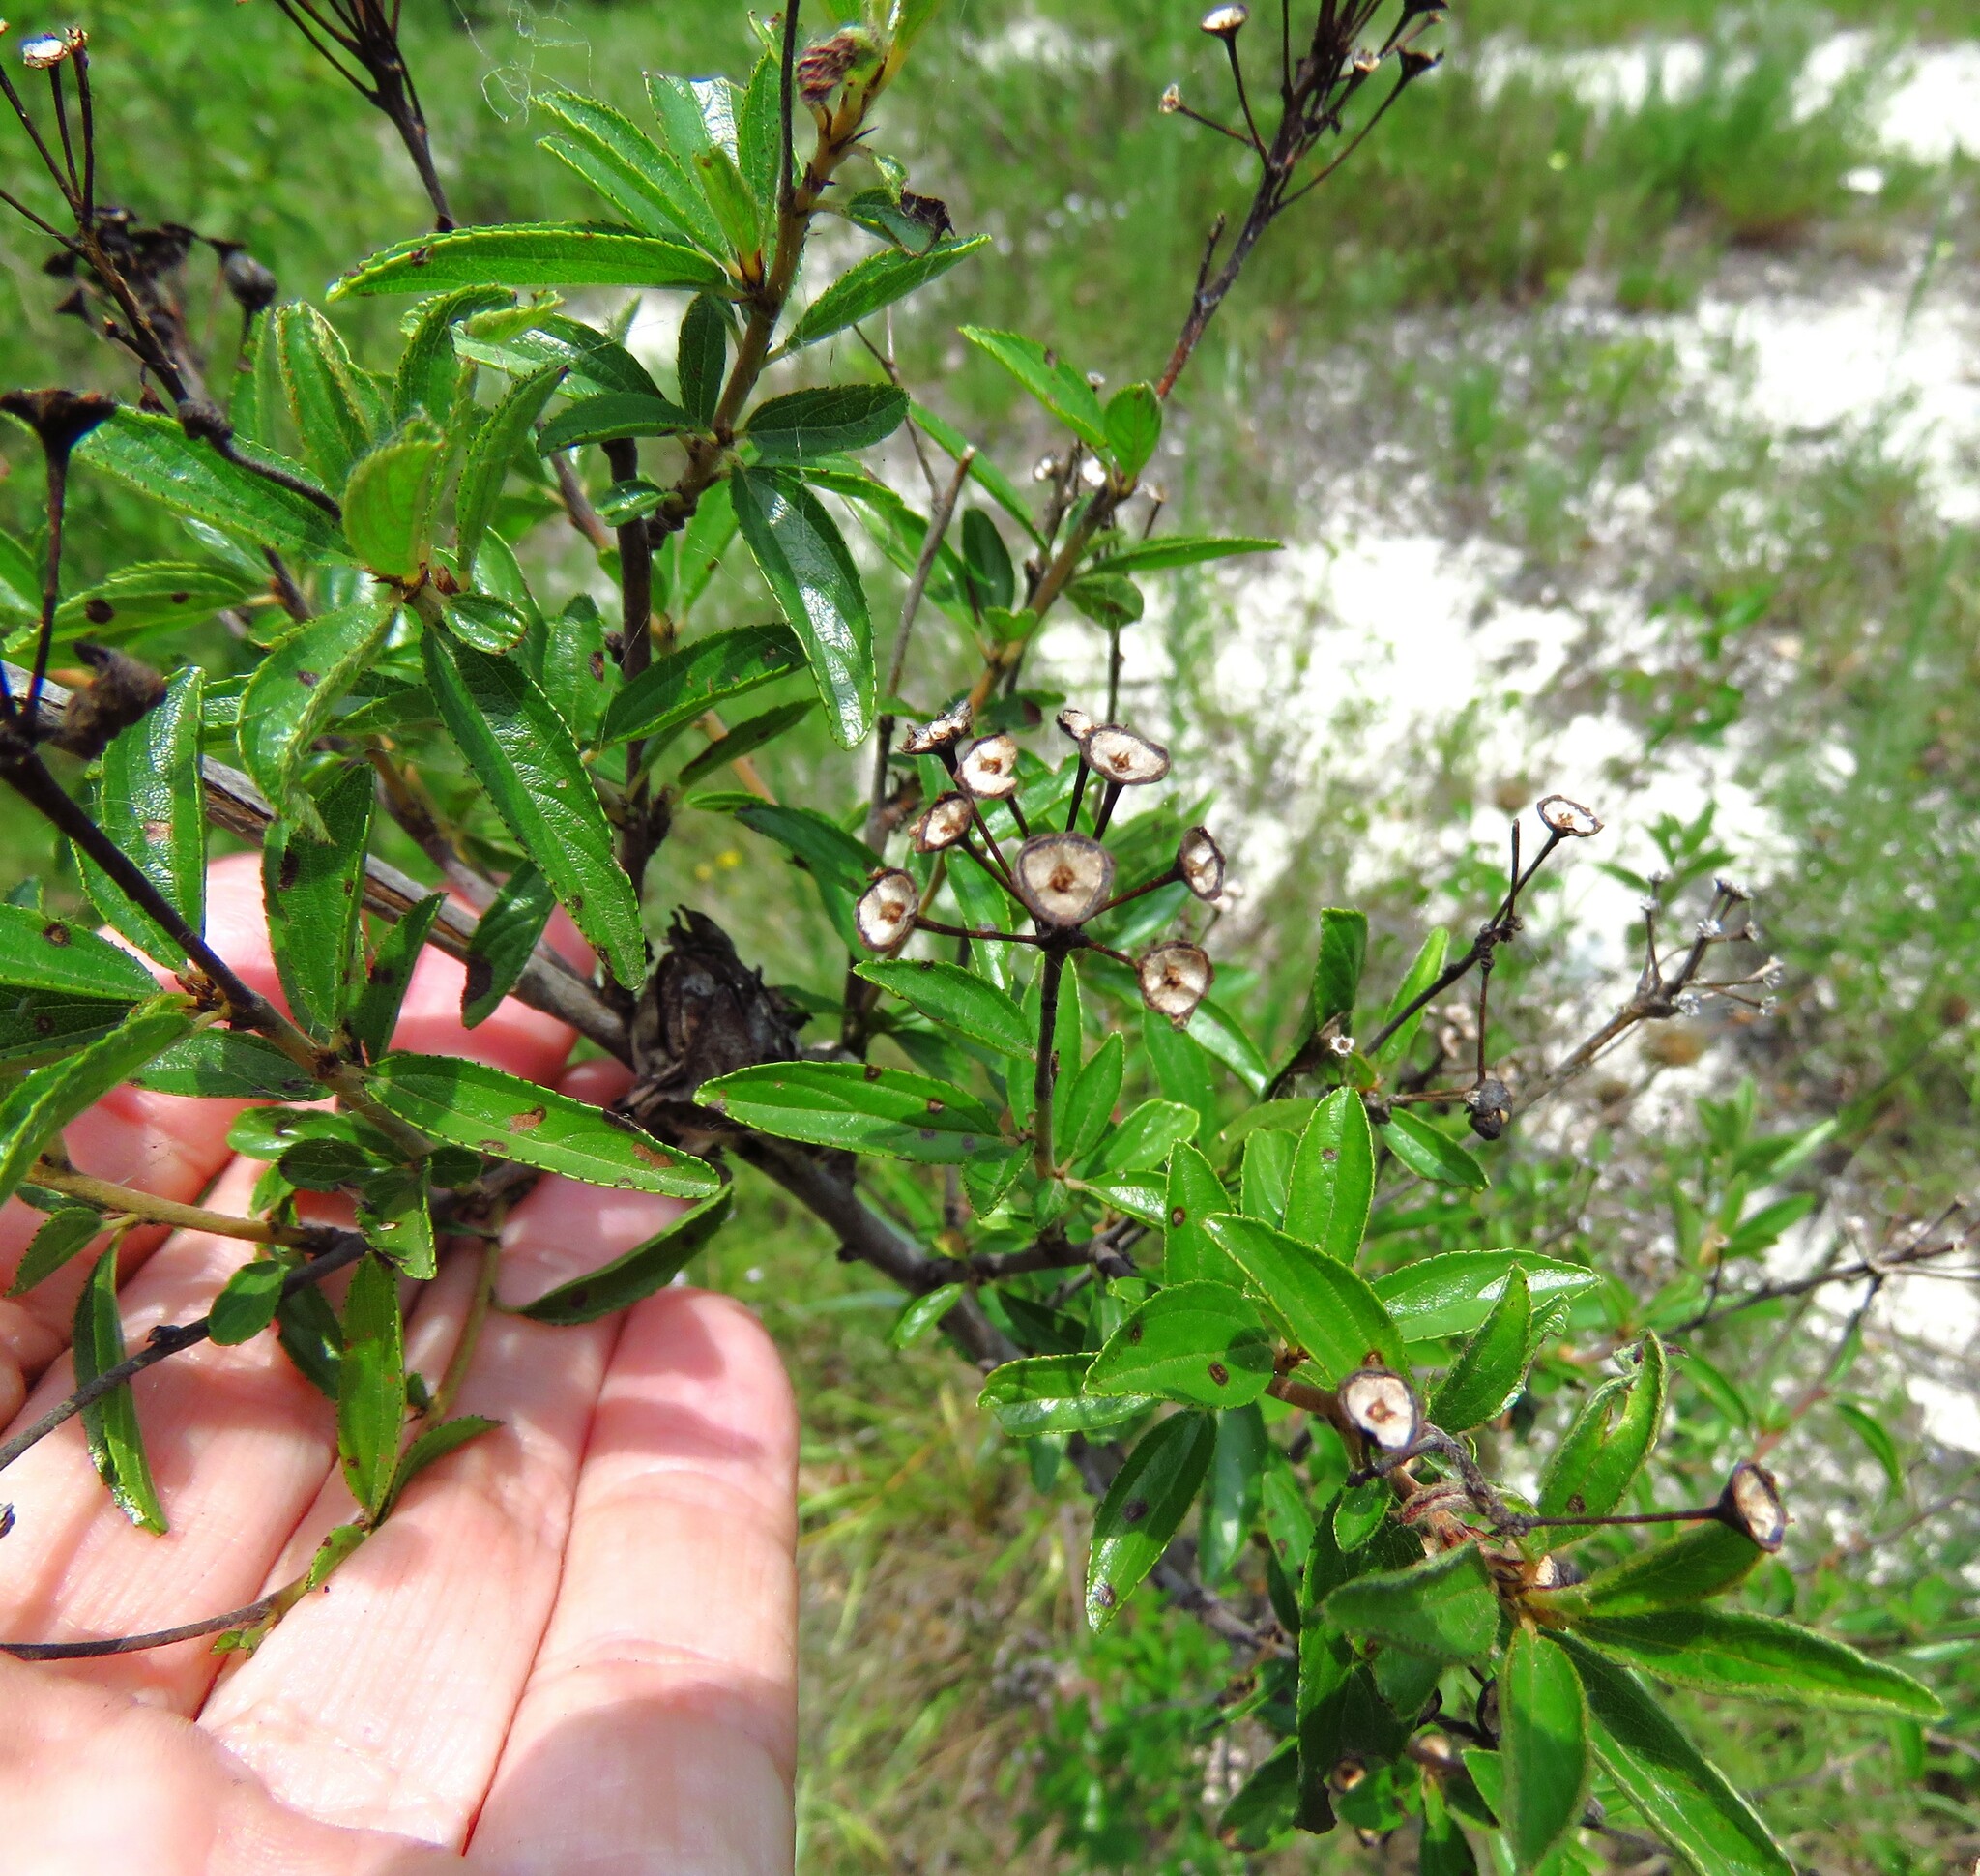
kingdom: Plantae
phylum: Tracheophyta
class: Magnoliopsida
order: Rosales
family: Rhamnaceae
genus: Ceanothus
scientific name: Ceanothus herbaceus
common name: Inland ceanothus
